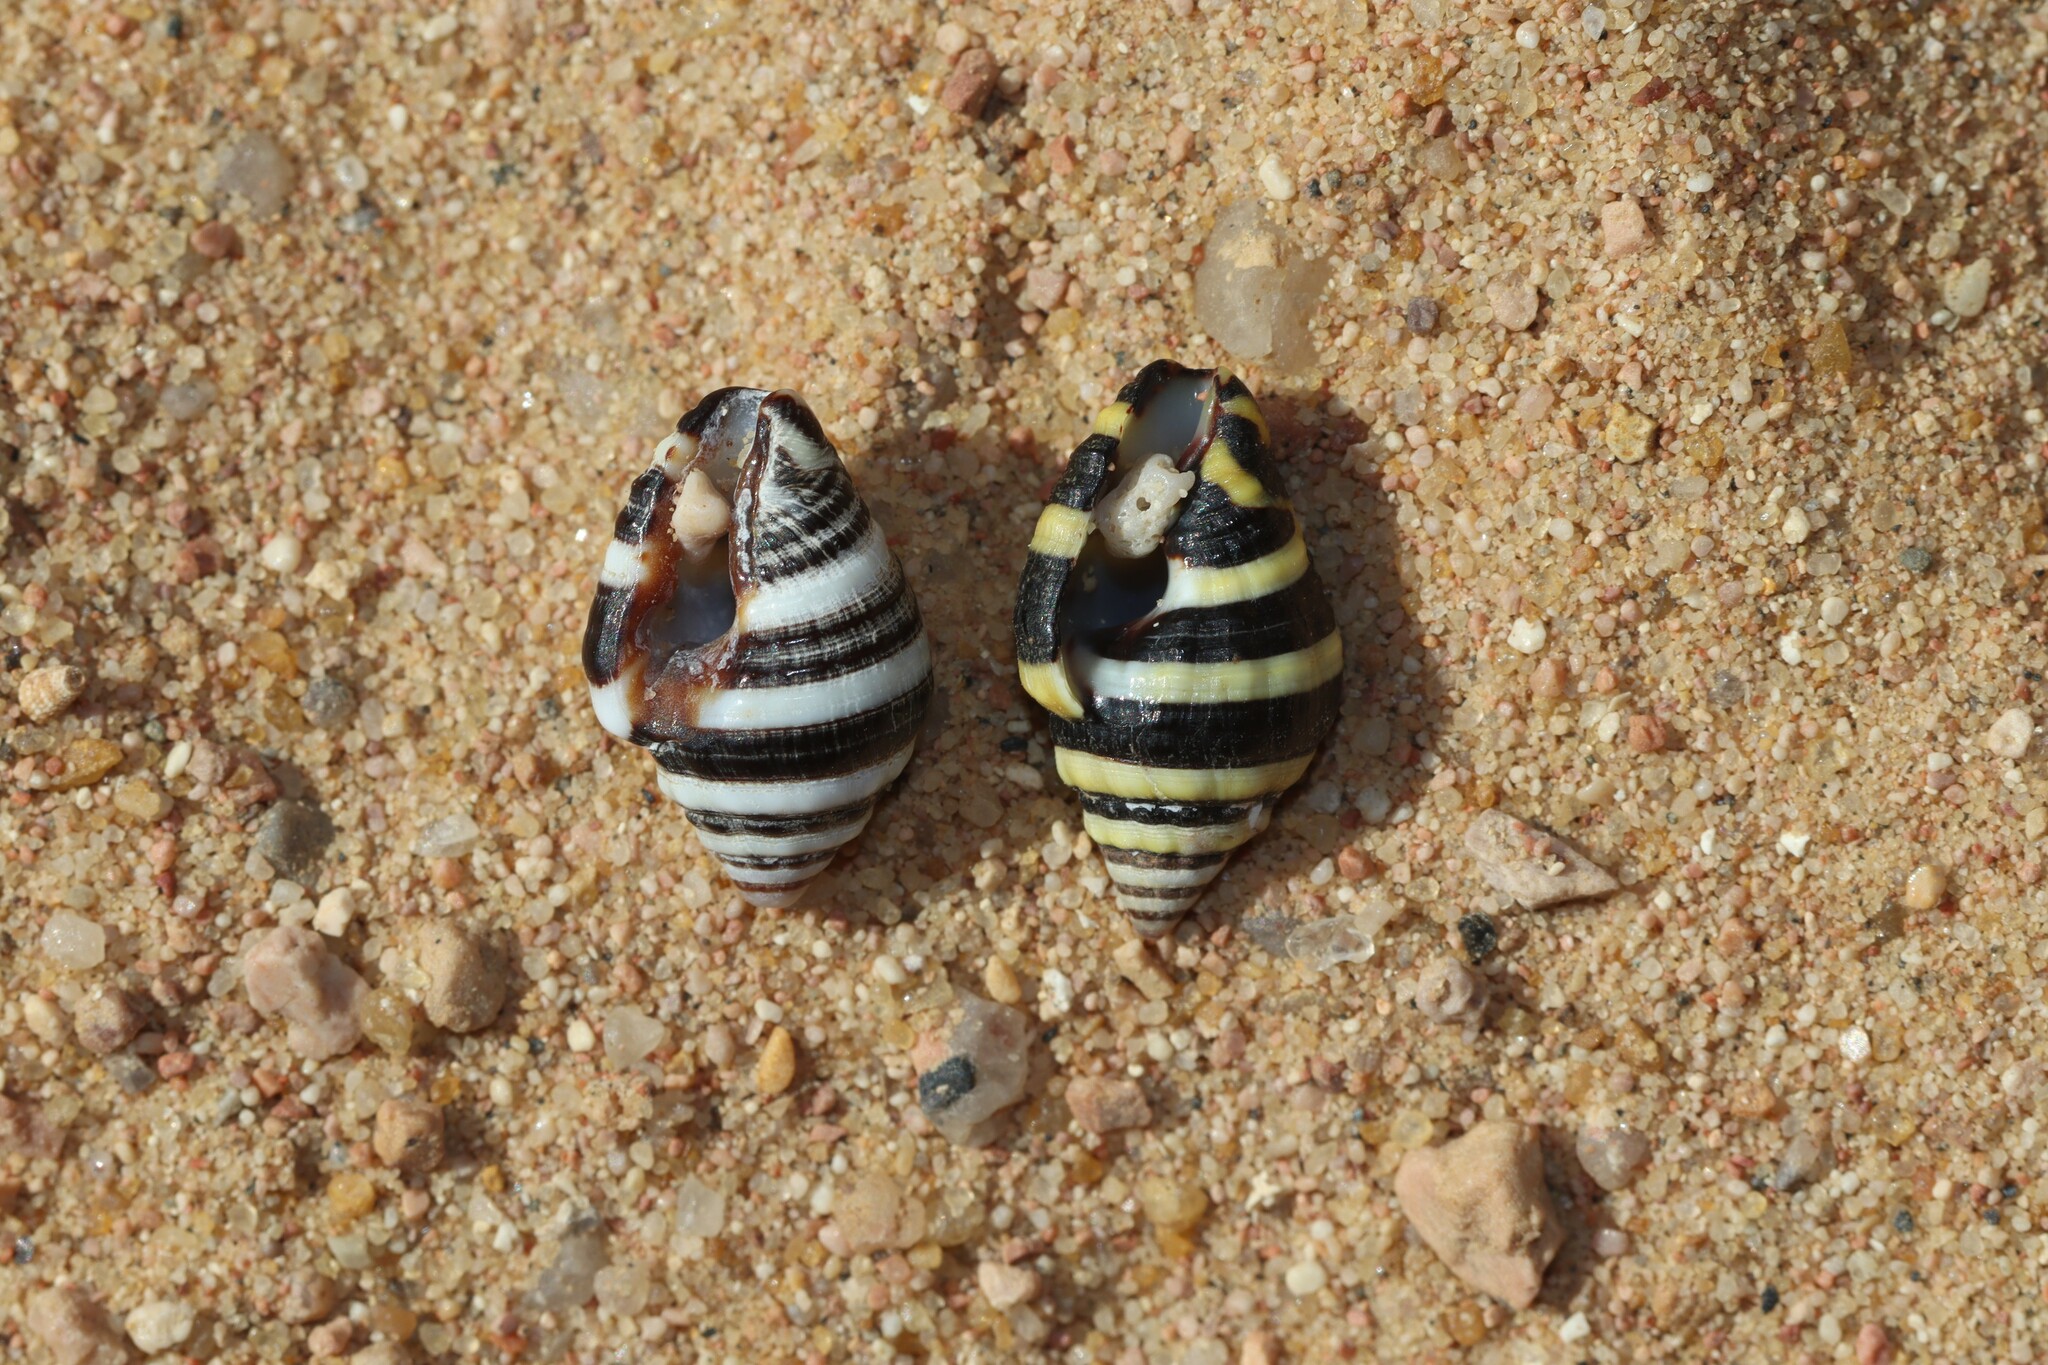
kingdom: Animalia
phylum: Mollusca
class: Gastropoda
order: Neogastropoda
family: Pisaniidae
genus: Engina
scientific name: Engina mendicaria
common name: Bumble bee snail
